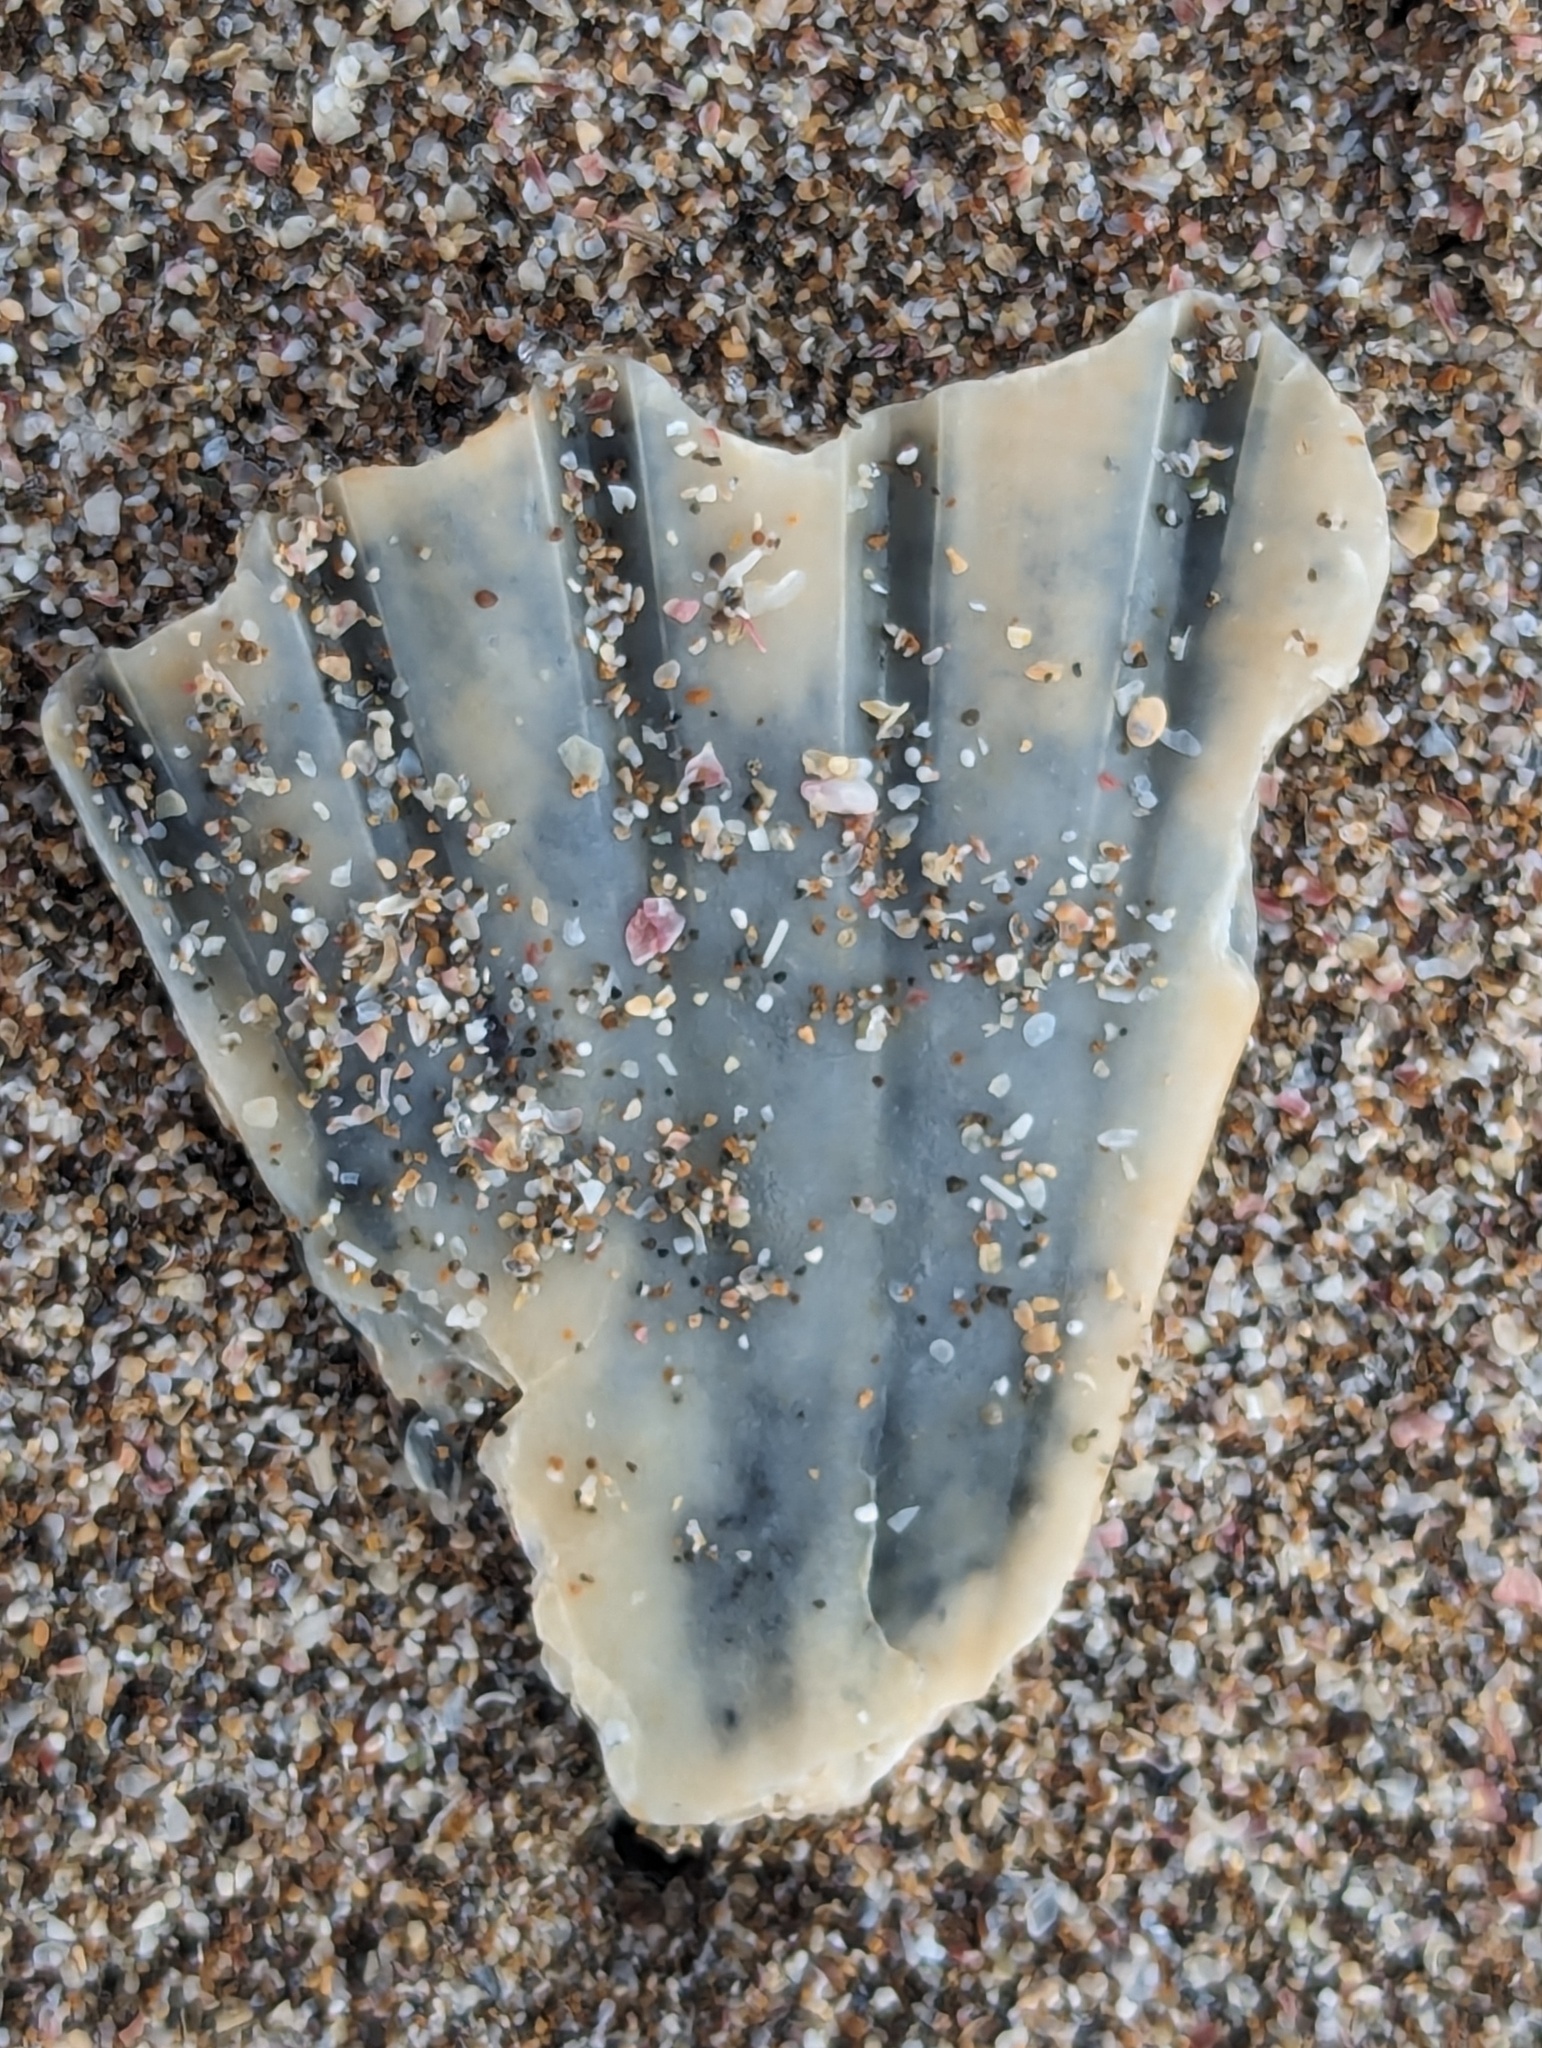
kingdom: Animalia
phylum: Mollusca
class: Bivalvia
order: Pectinida
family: Pectinidae
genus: Pecten
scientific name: Pecten novaezelandiae
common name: New zealand scallop
